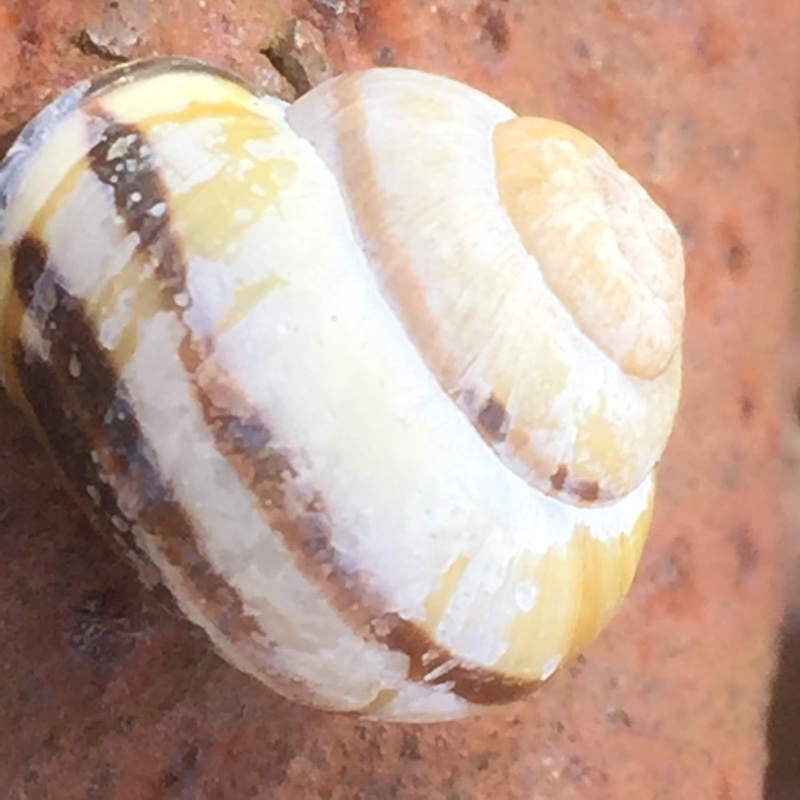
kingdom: Animalia
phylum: Mollusca
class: Gastropoda
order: Stylommatophora
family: Helicidae
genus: Cepaea
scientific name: Cepaea nemoralis
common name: Grovesnail
